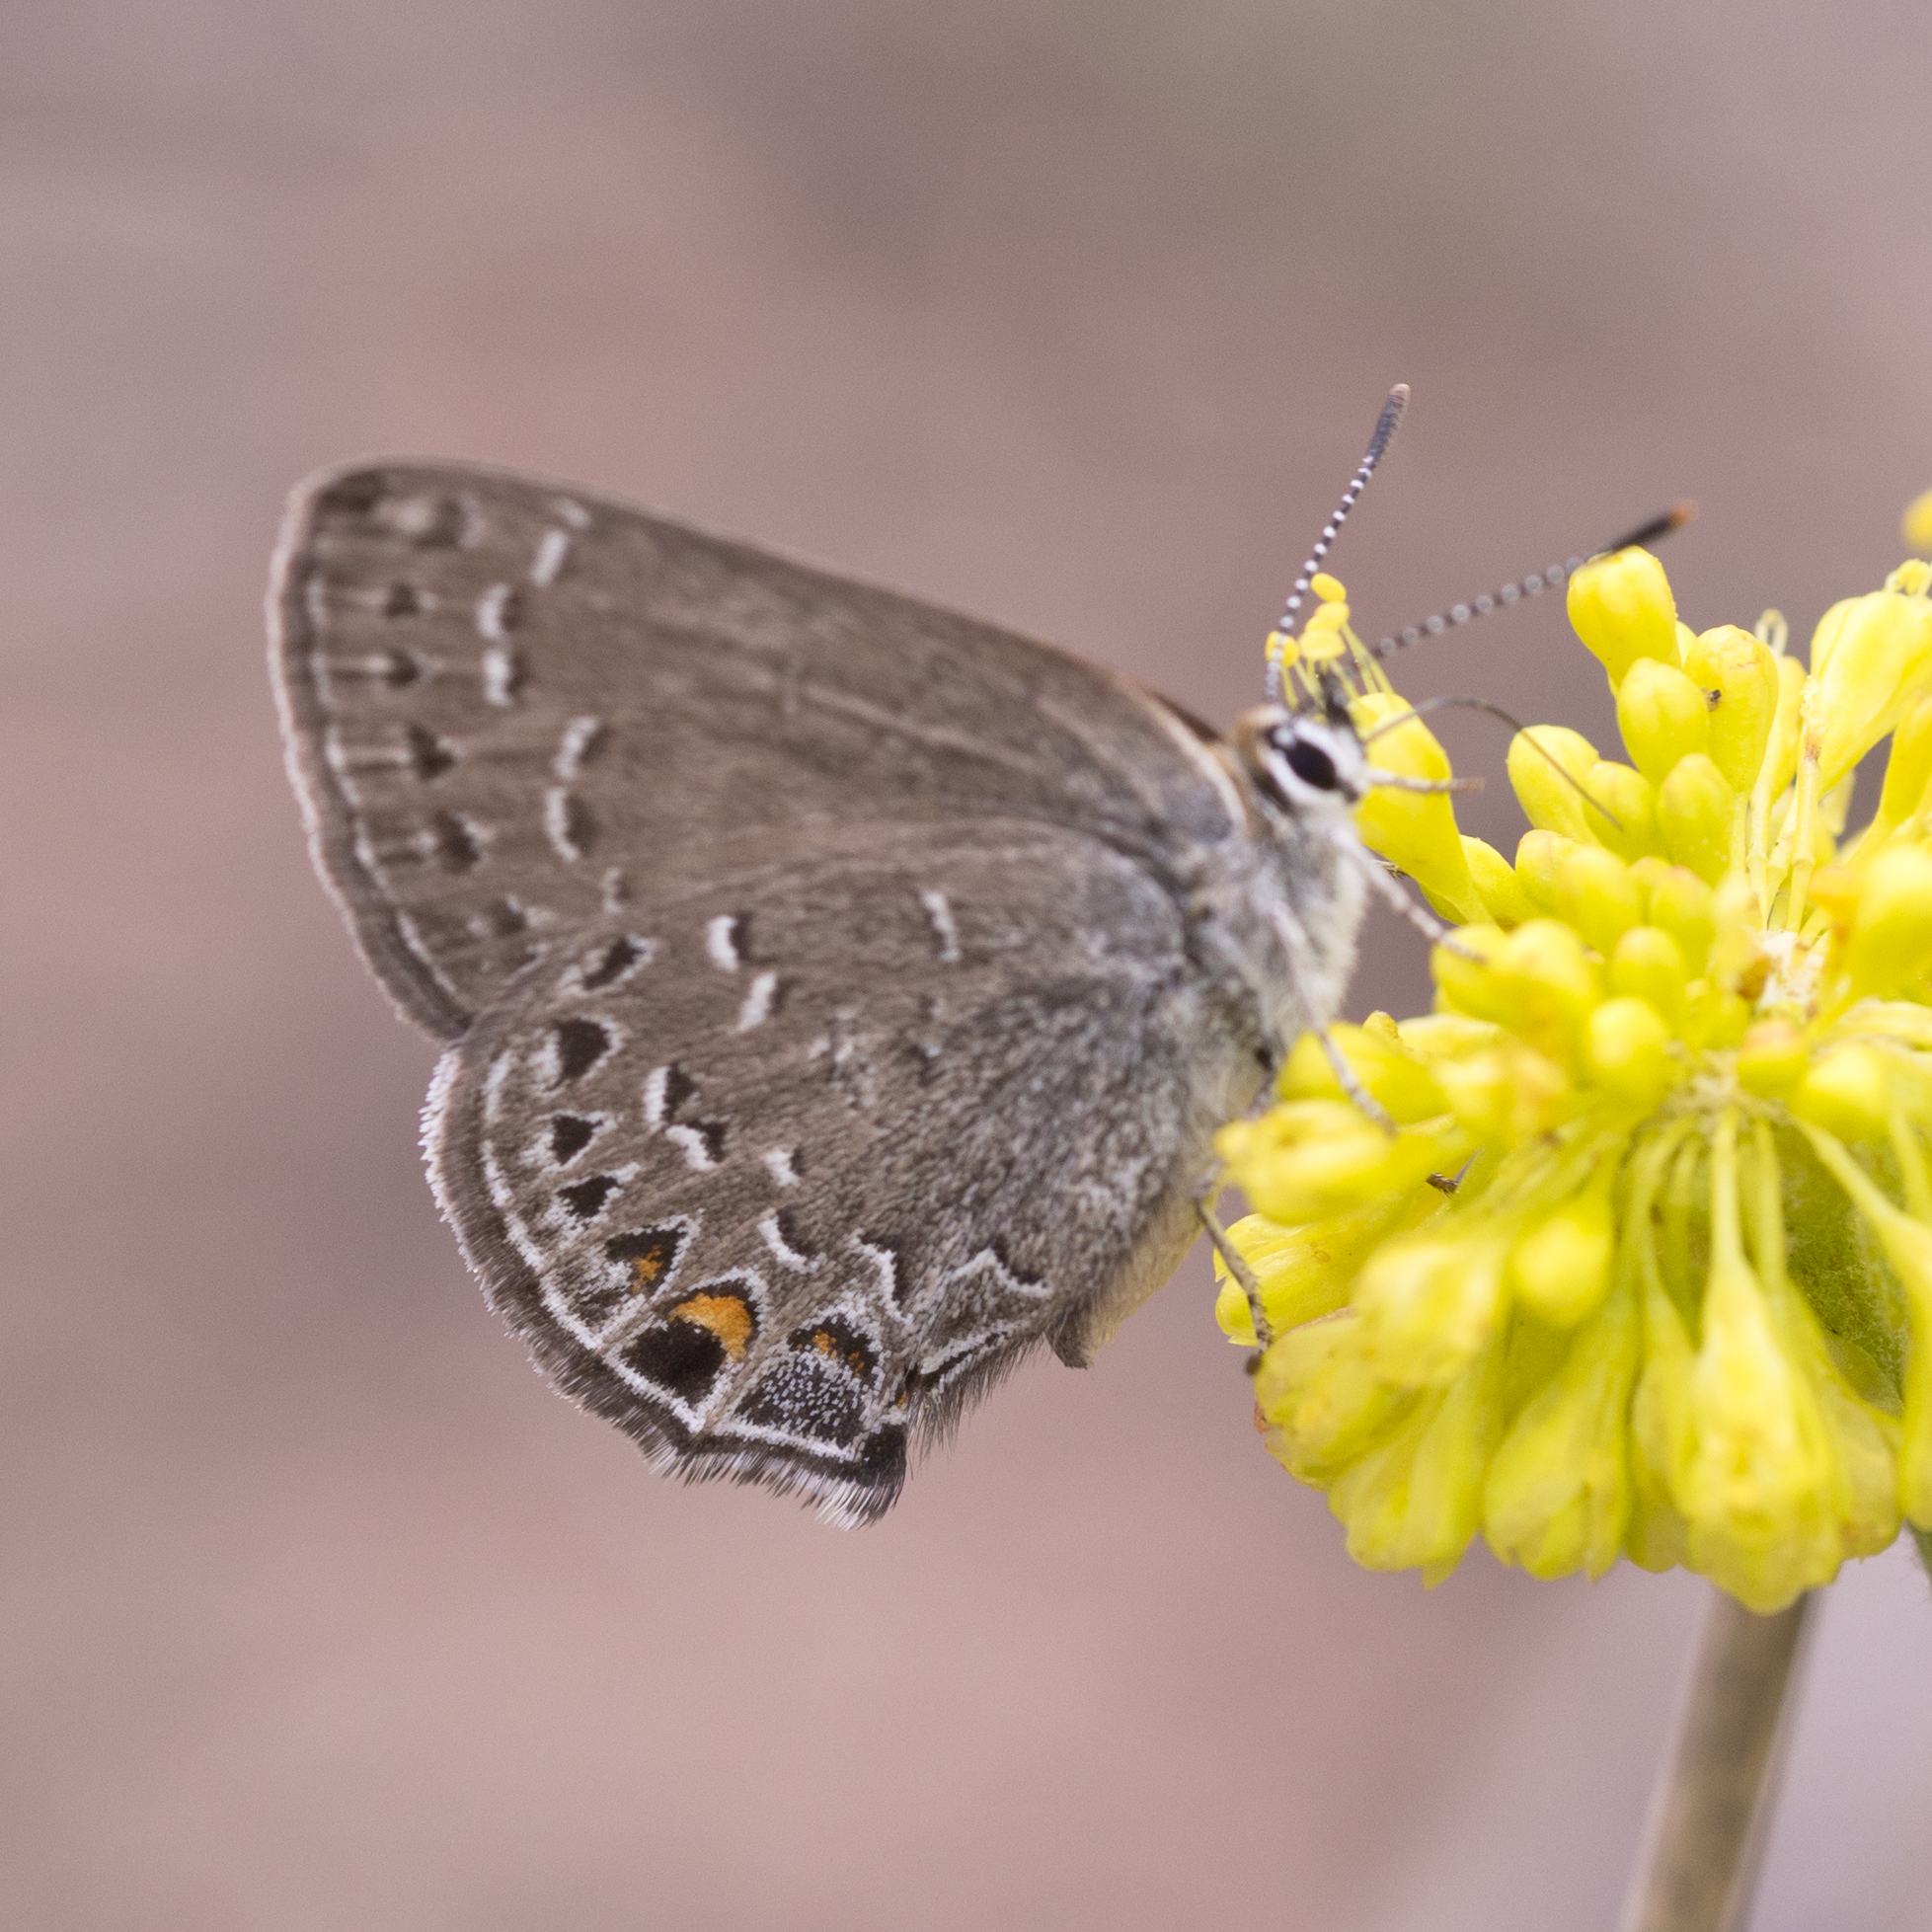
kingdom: Animalia
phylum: Arthropoda
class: Insecta
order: Lepidoptera
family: Lycaenidae
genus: Satyrium
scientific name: Satyrium behrii
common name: Behr's hairstreak
